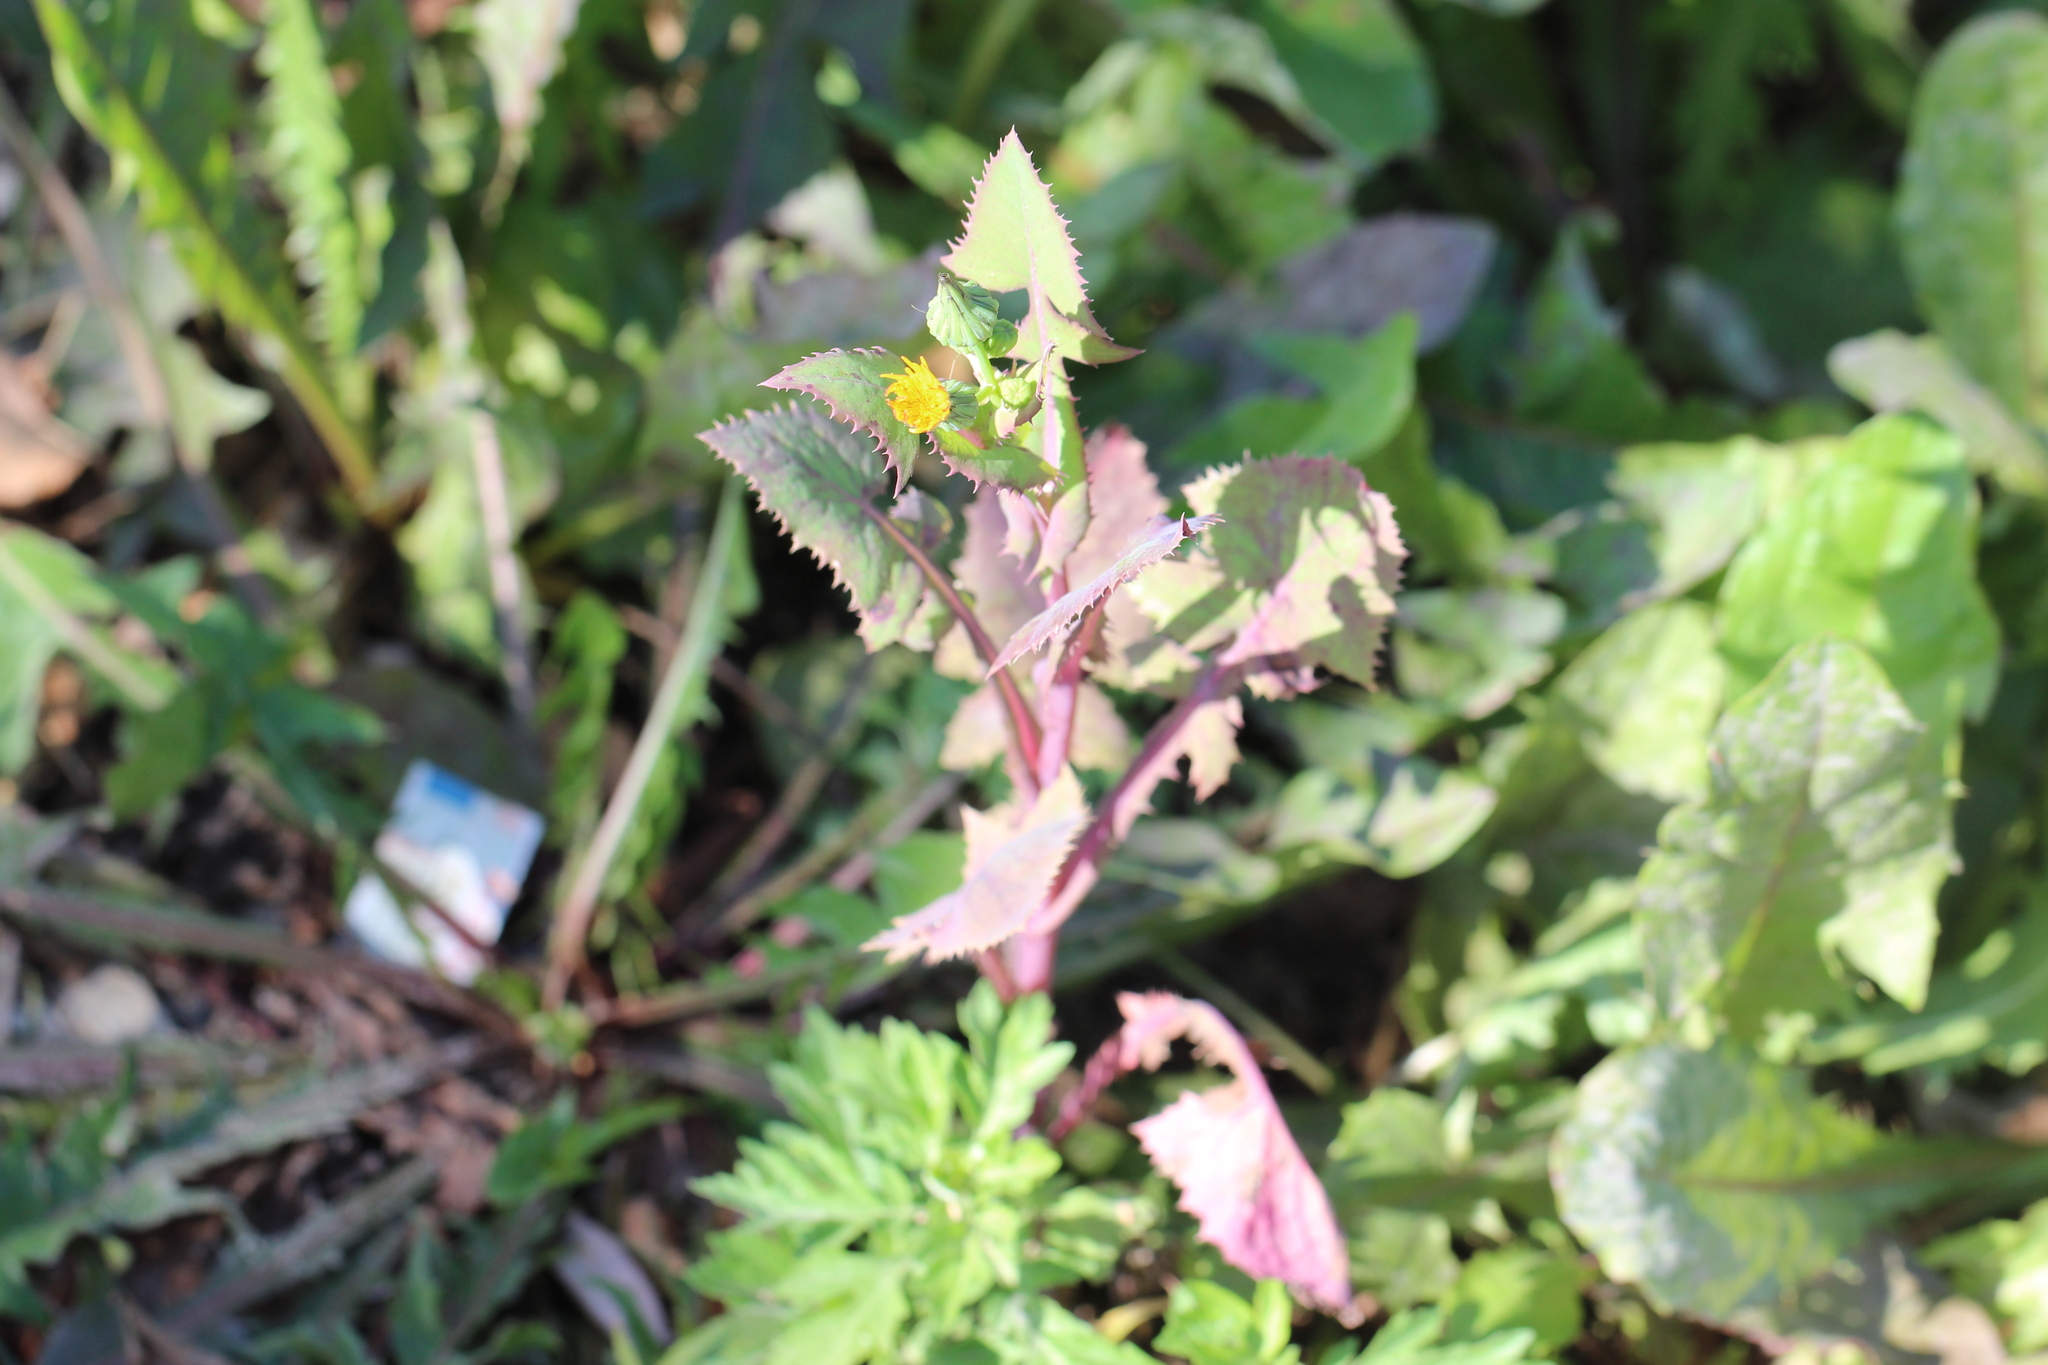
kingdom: Plantae
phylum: Tracheophyta
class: Magnoliopsida
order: Asterales
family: Asteraceae
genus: Sonchus
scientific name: Sonchus oleraceus
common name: Common sowthistle
